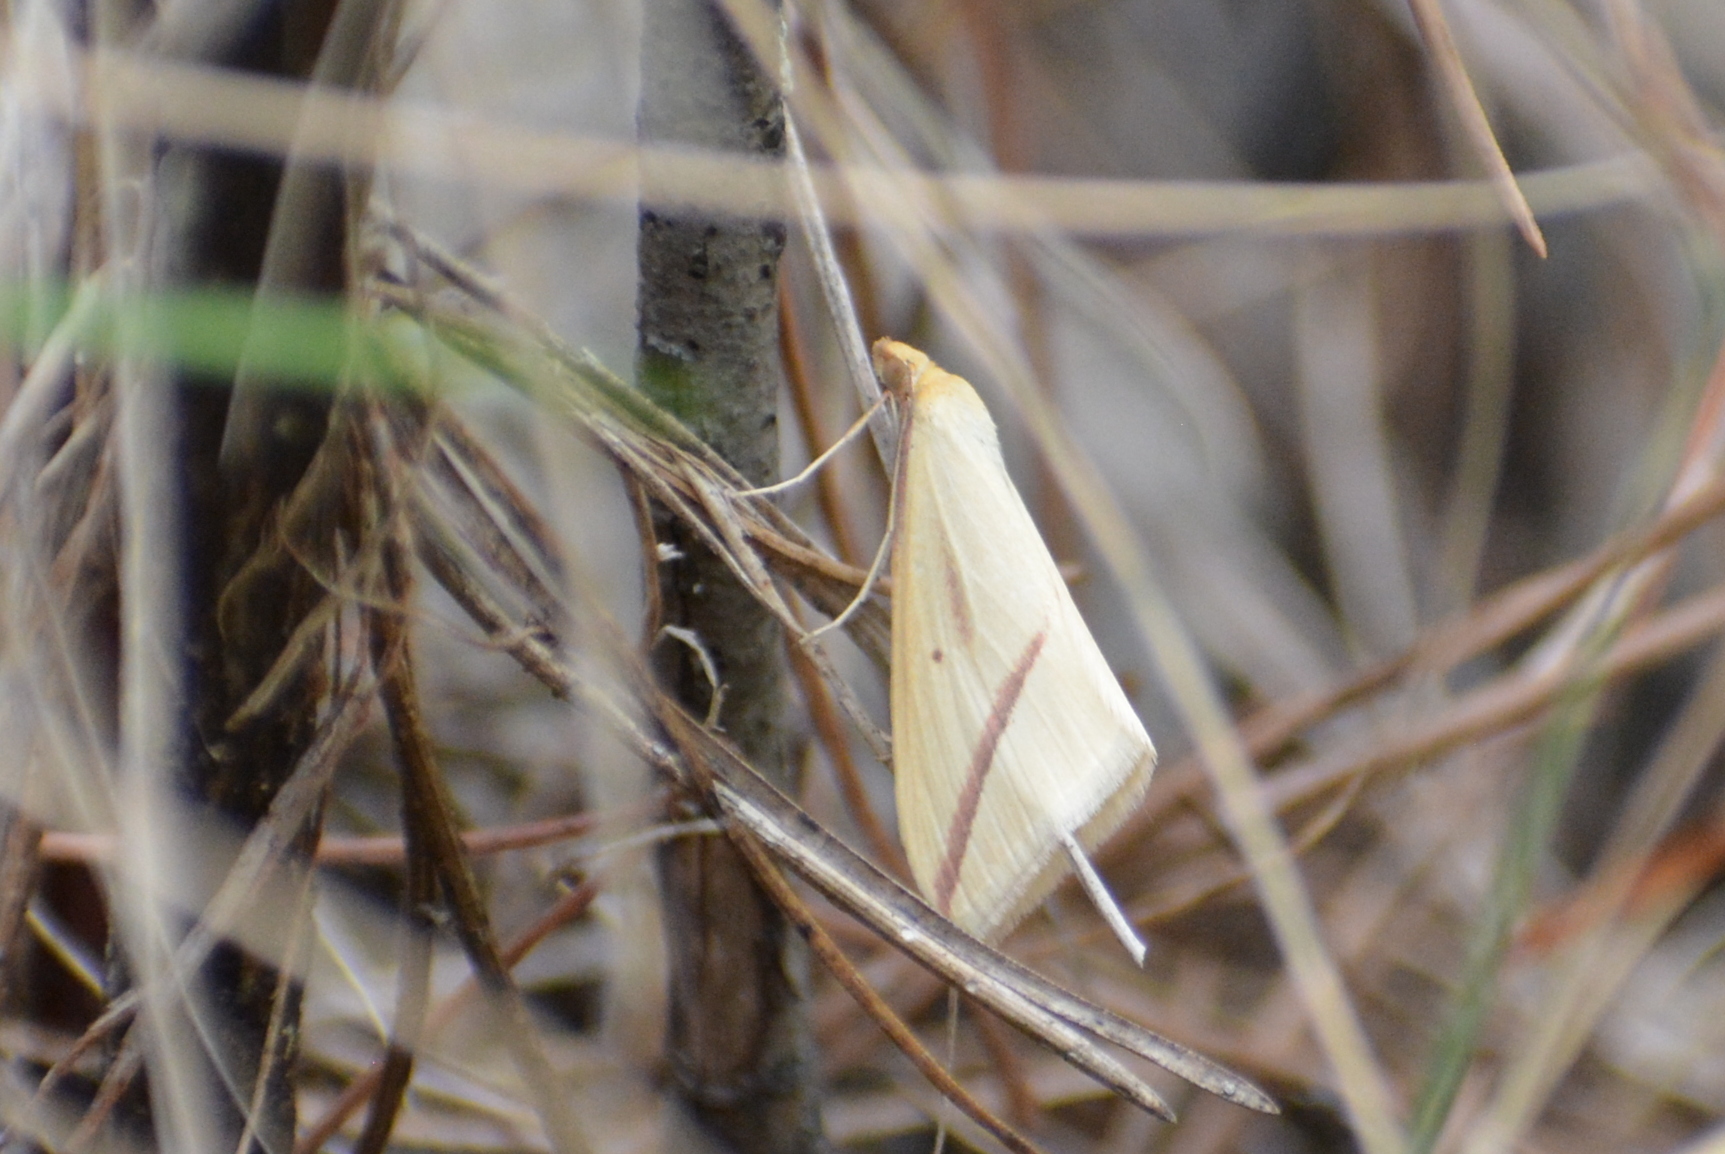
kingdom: Animalia
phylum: Arthropoda
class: Insecta
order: Lepidoptera
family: Geometridae
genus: Rhodometra
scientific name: Rhodometra sacraria
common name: Vestal
